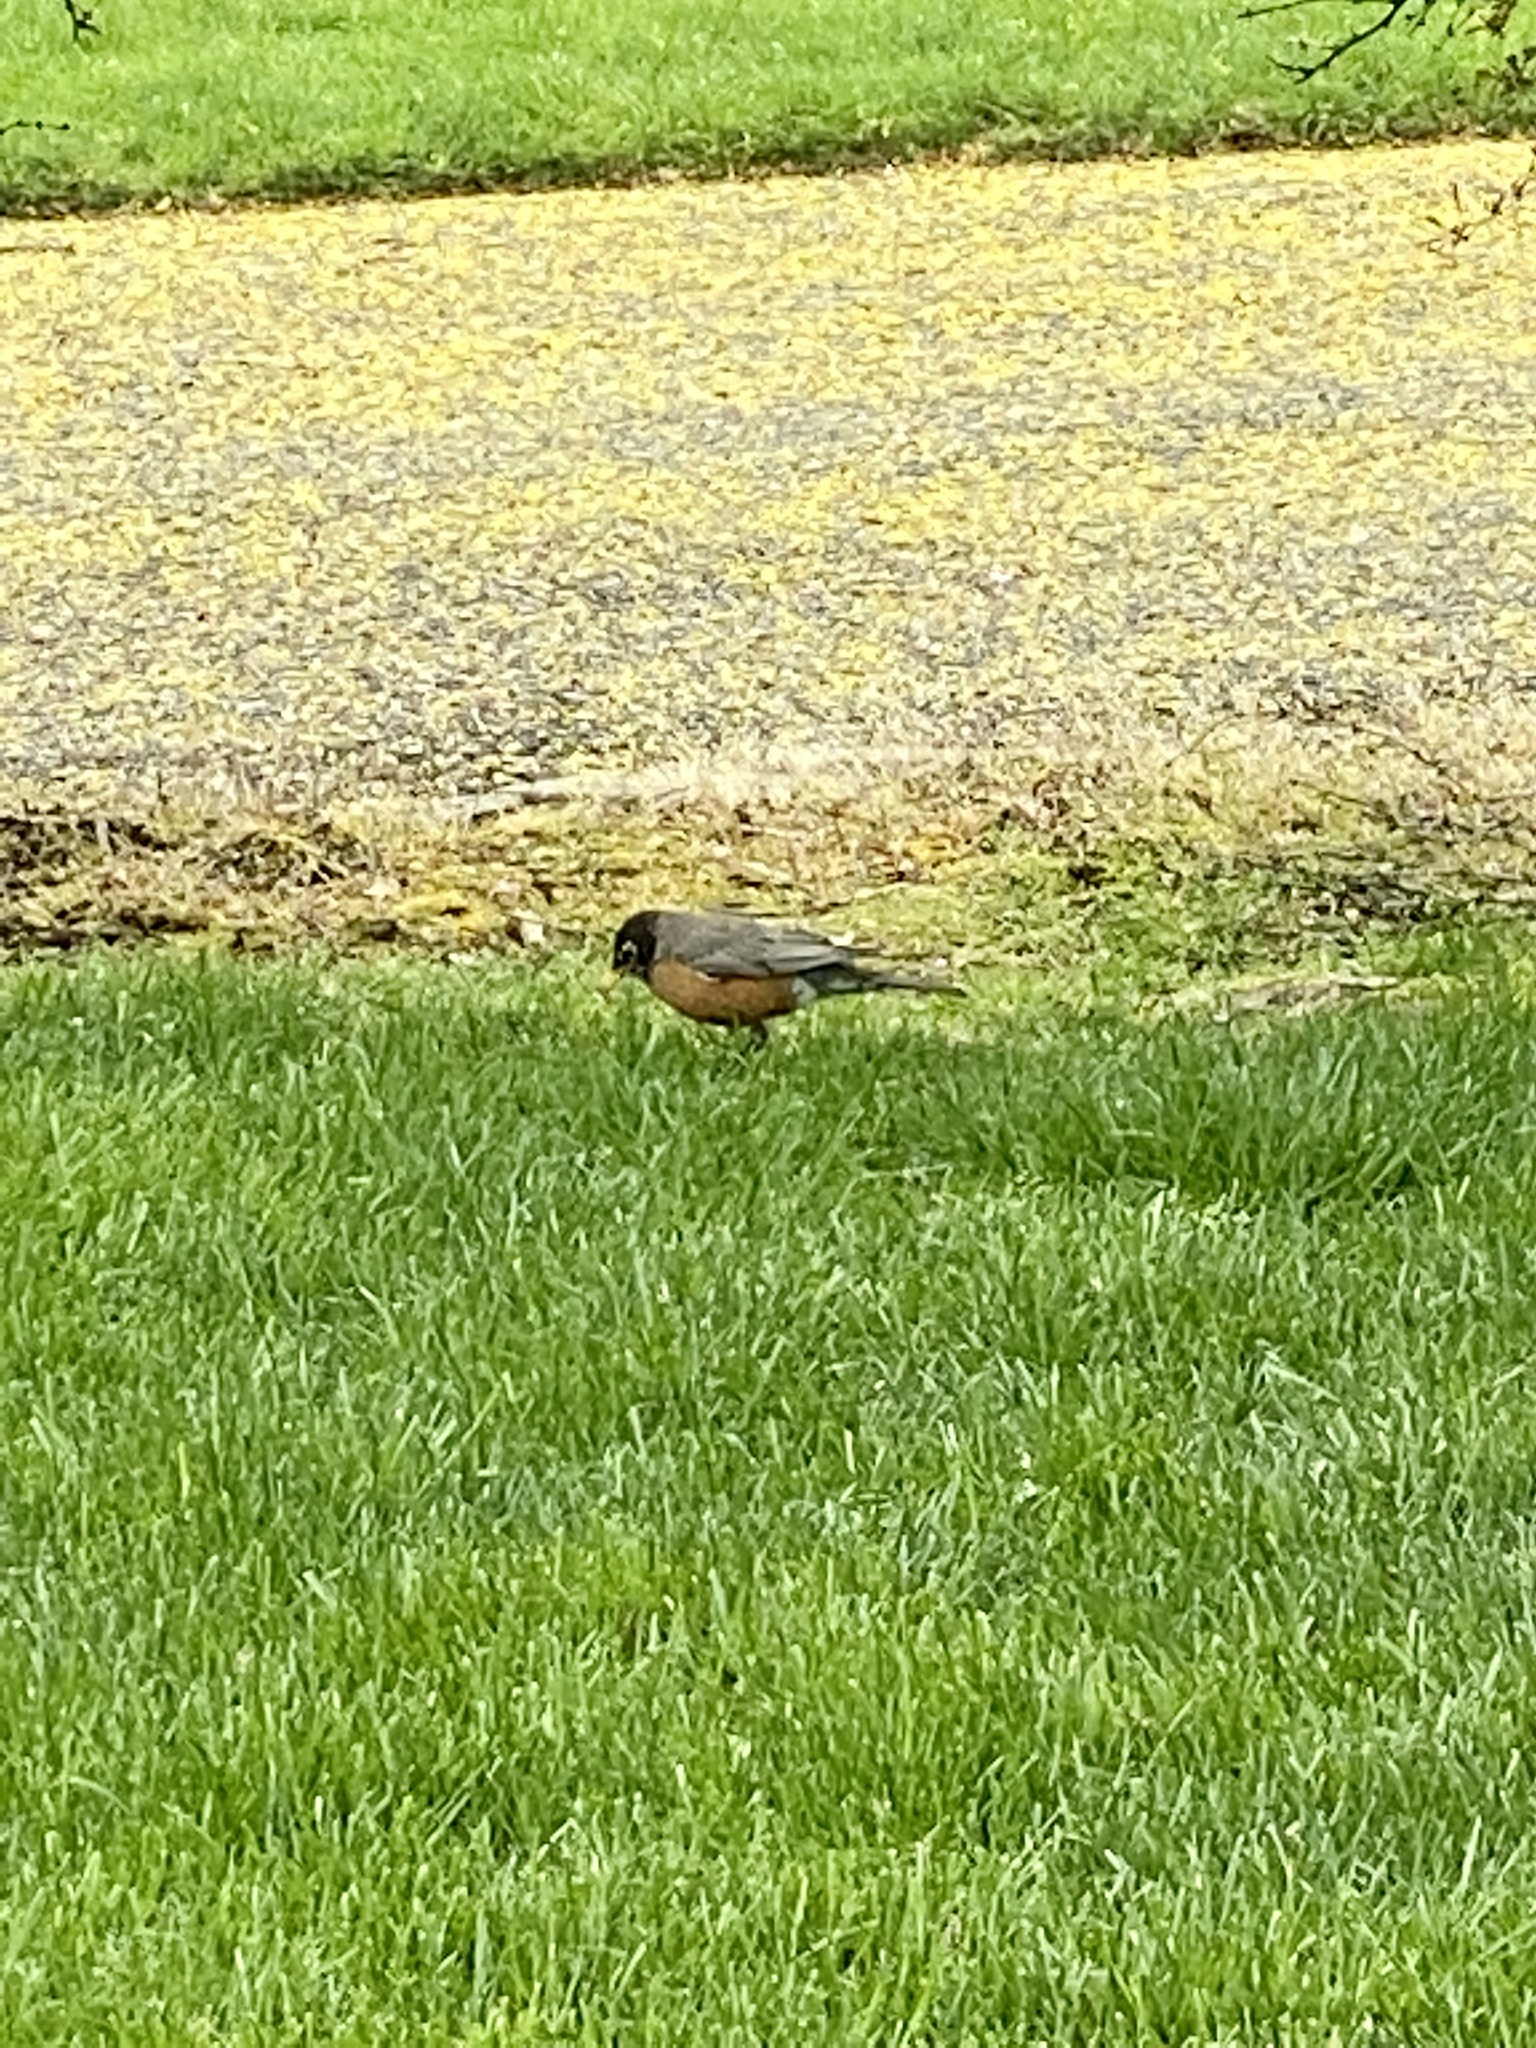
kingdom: Animalia
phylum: Chordata
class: Aves
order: Passeriformes
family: Turdidae
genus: Turdus
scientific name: Turdus migratorius
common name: American robin
